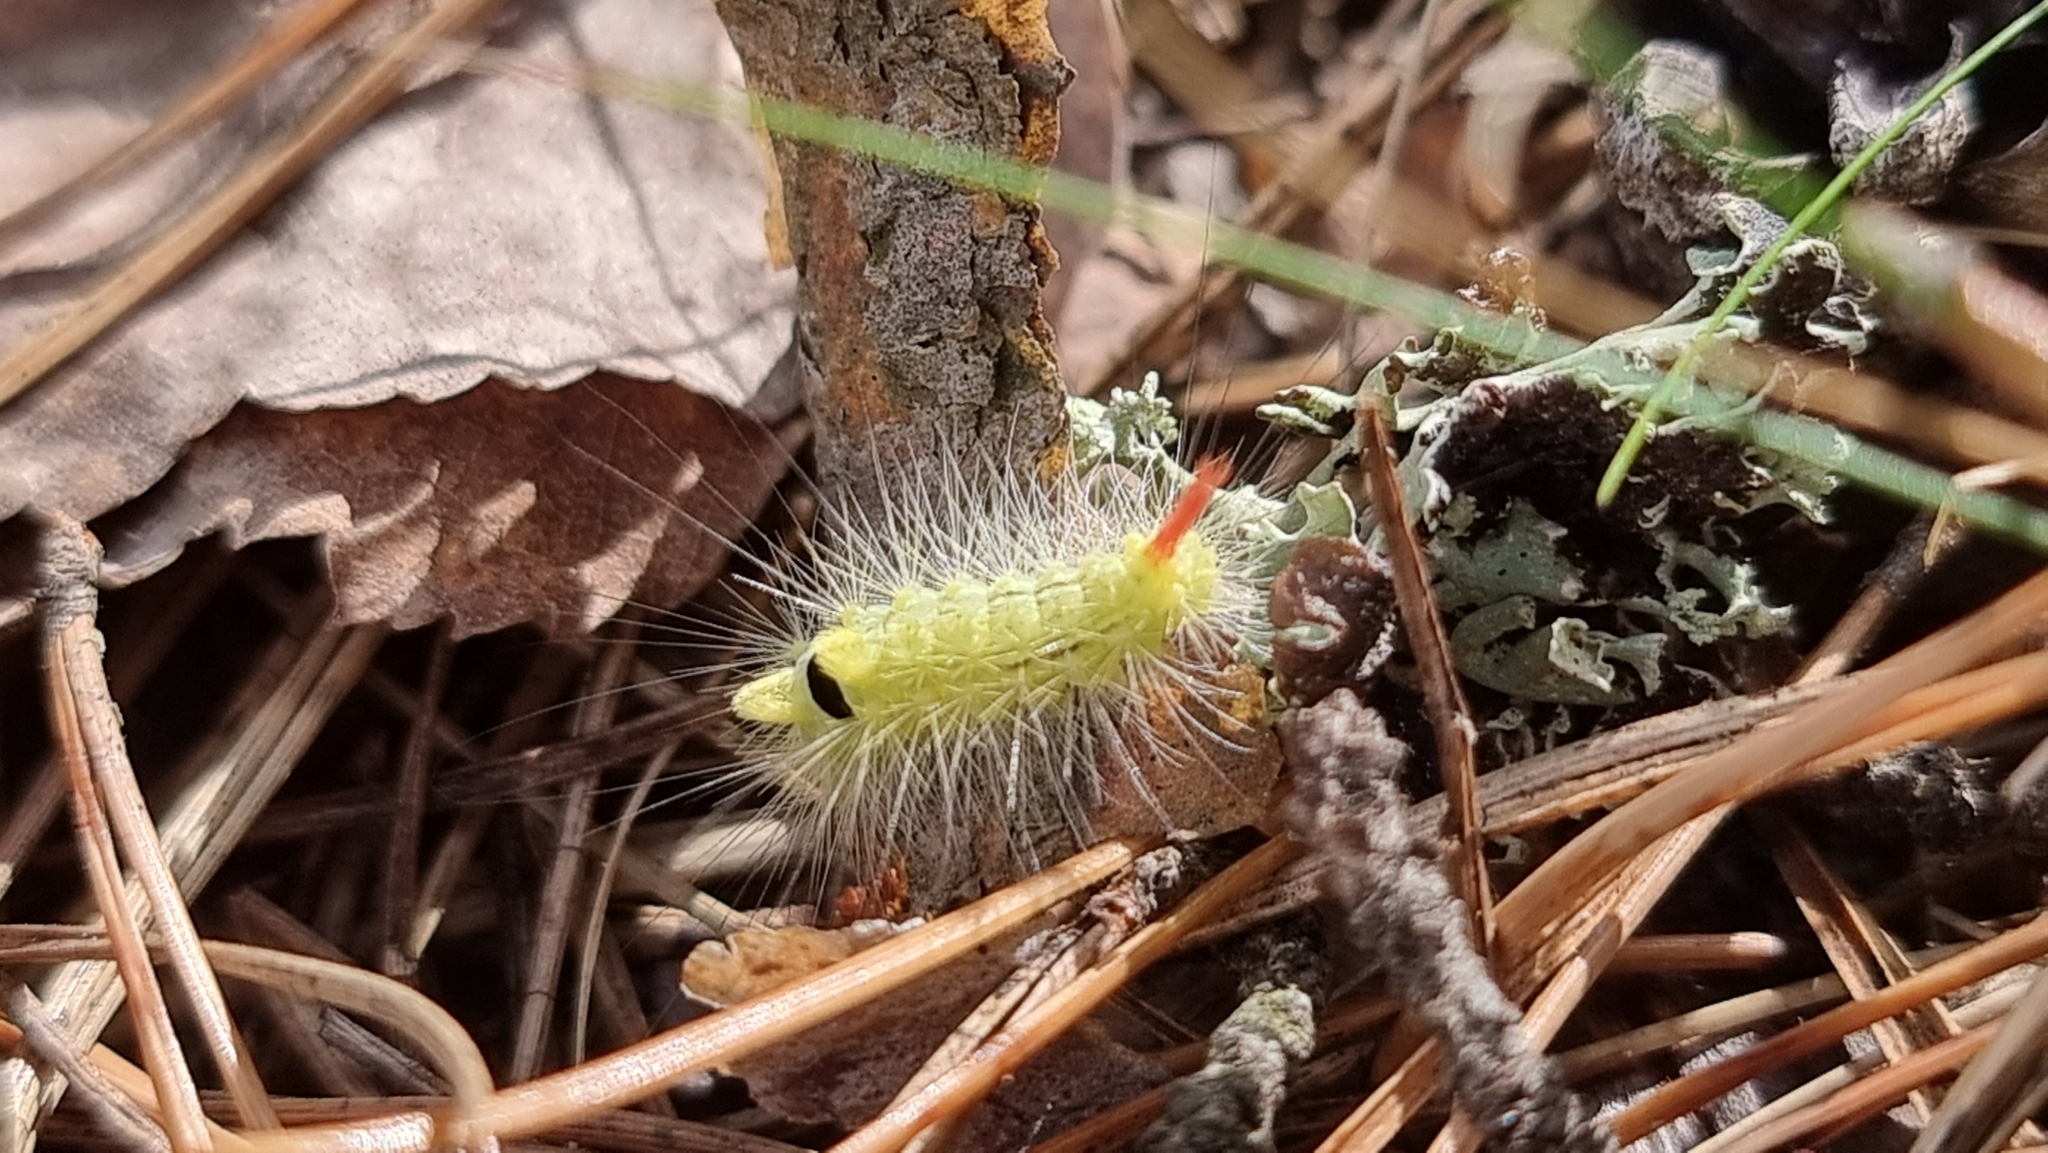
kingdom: Animalia
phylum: Arthropoda
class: Insecta
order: Lepidoptera
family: Erebidae
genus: Calliteara
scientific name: Calliteara pudibunda
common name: Pale tussock
